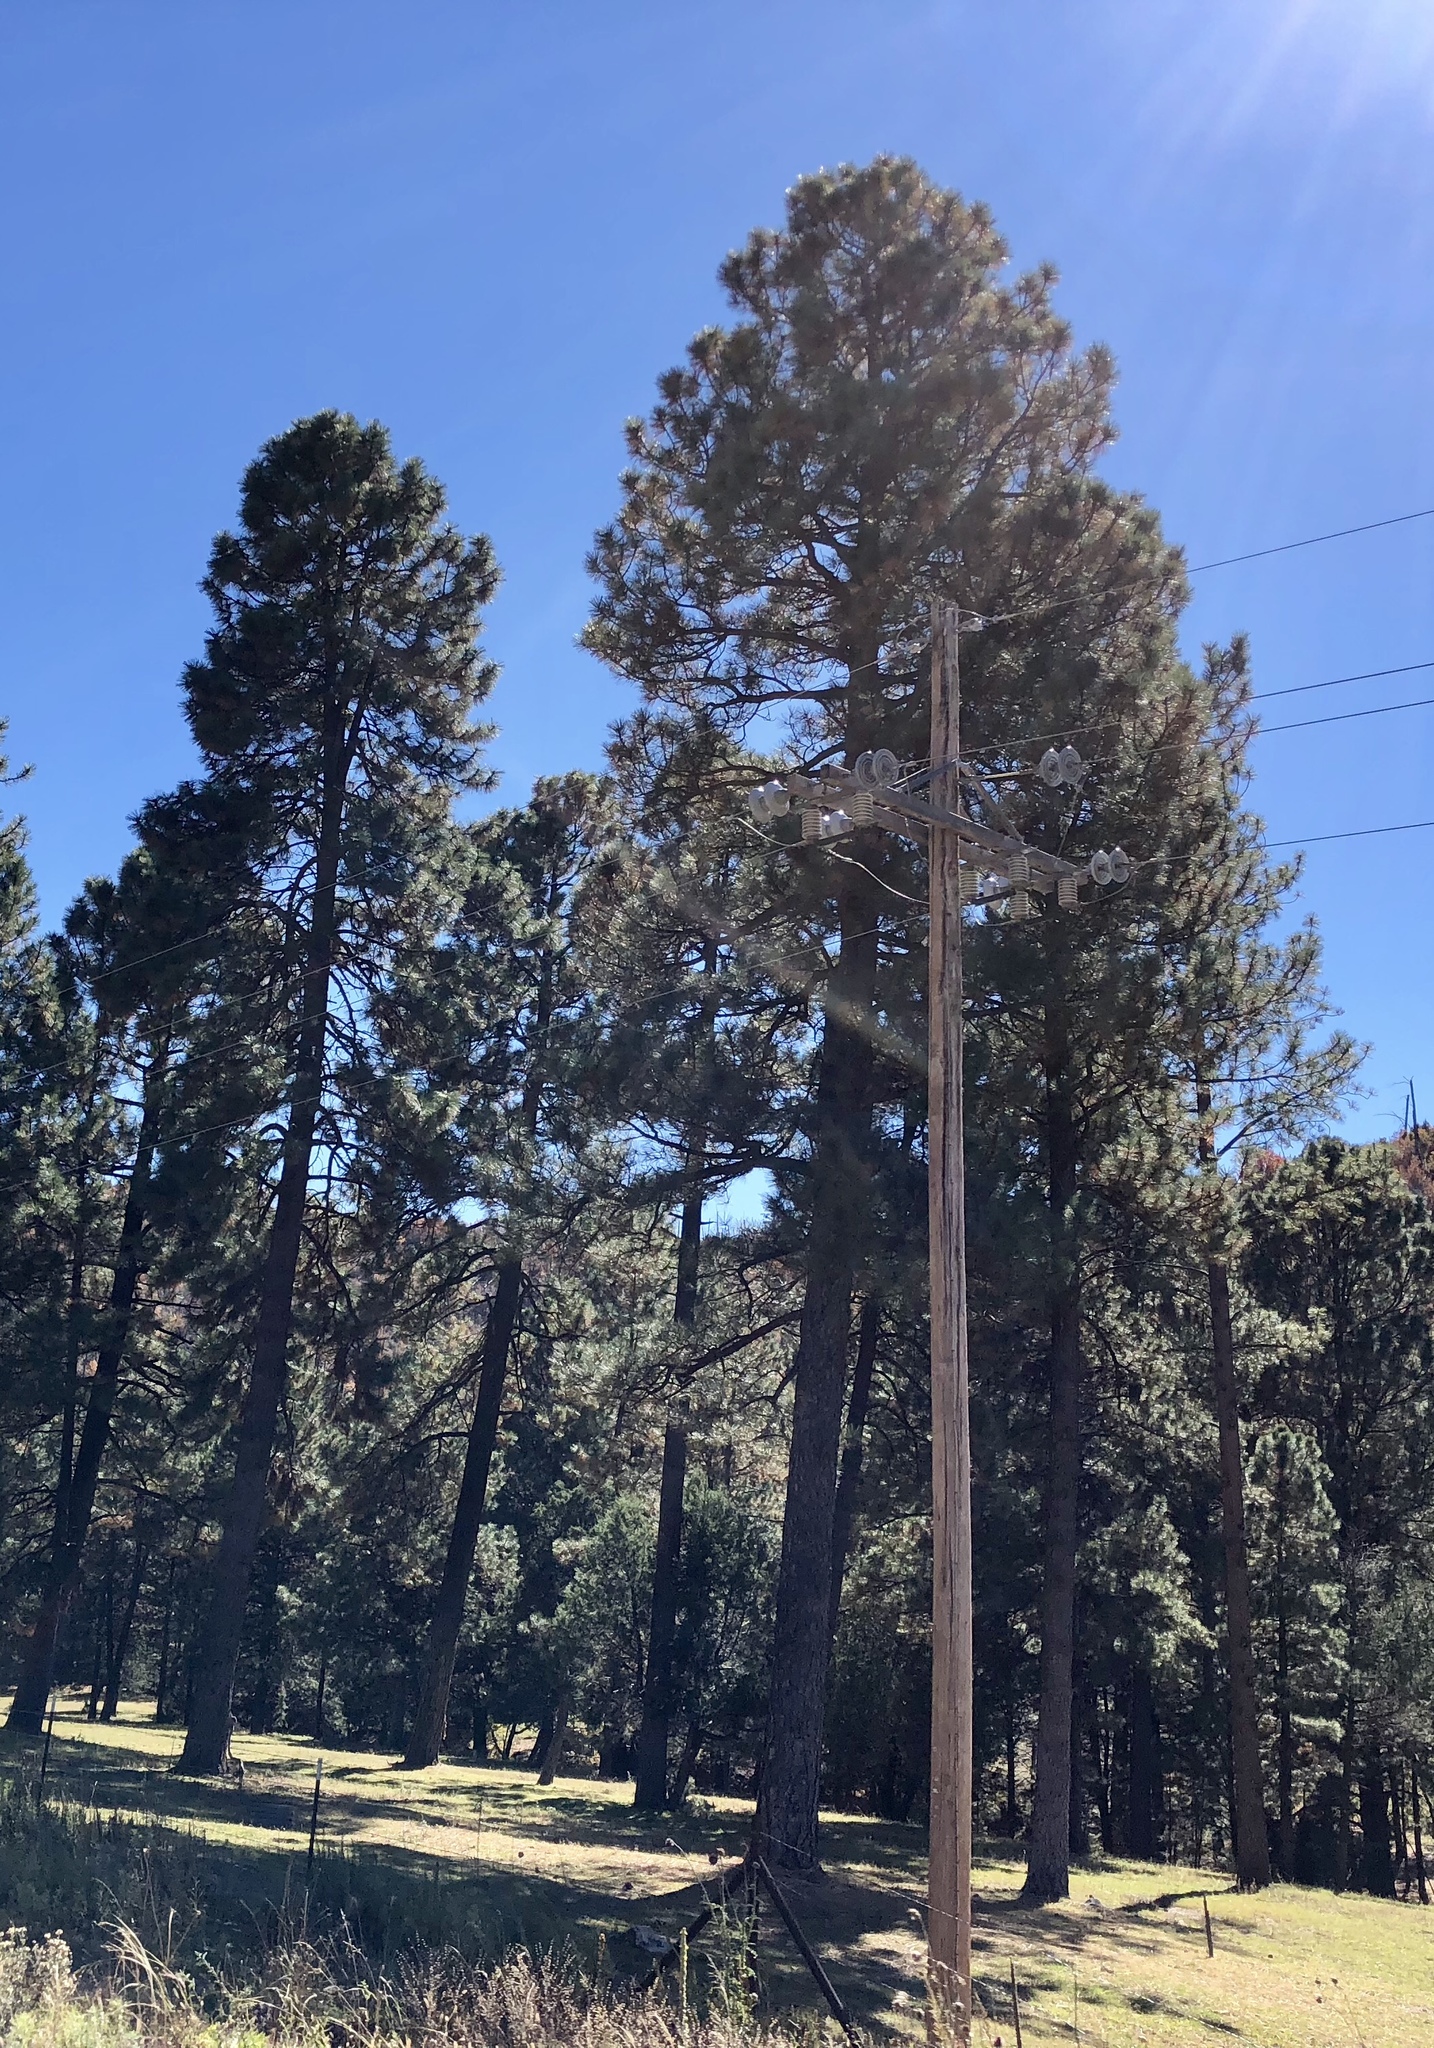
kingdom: Plantae
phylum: Tracheophyta
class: Pinopsida
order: Pinales
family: Pinaceae
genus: Pinus
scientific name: Pinus ponderosa
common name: Western yellow-pine
